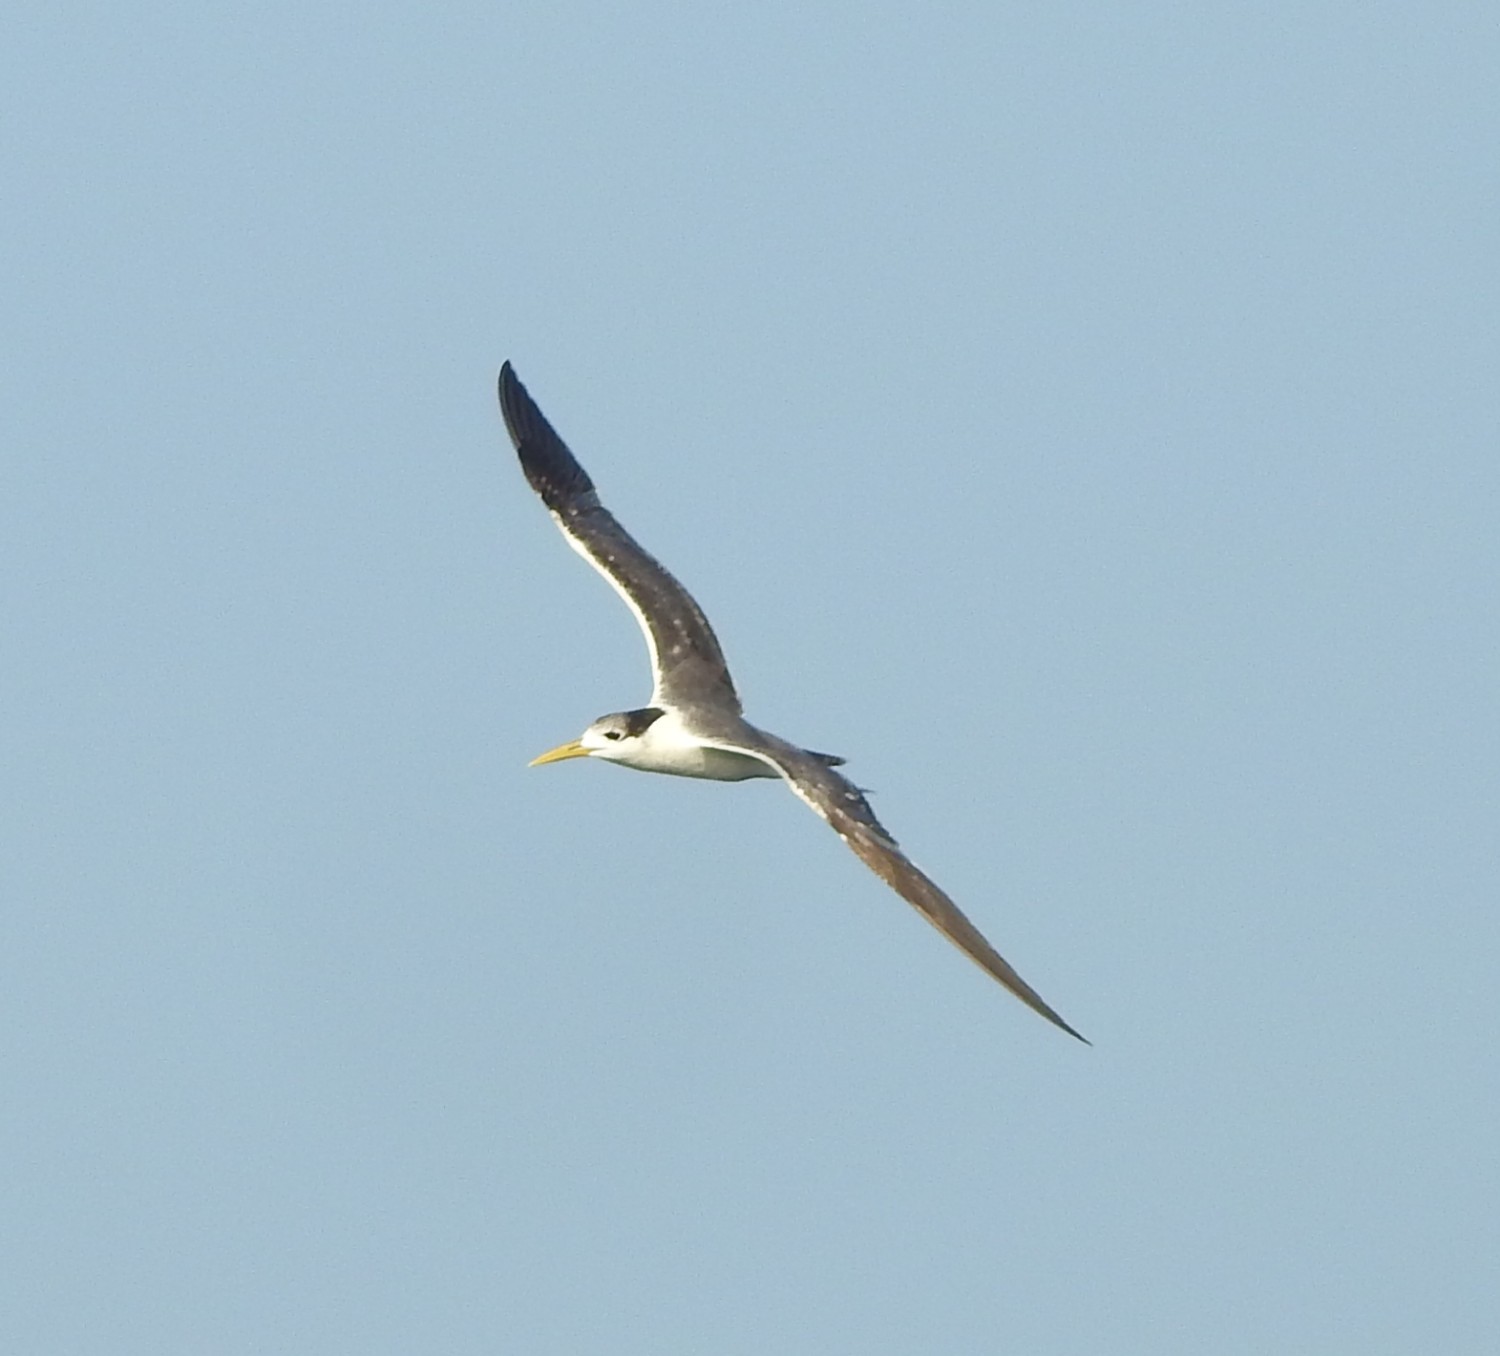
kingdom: Animalia
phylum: Chordata
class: Aves
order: Charadriiformes
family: Laridae
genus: Thalasseus
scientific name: Thalasseus bergii
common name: Greater crested tern
